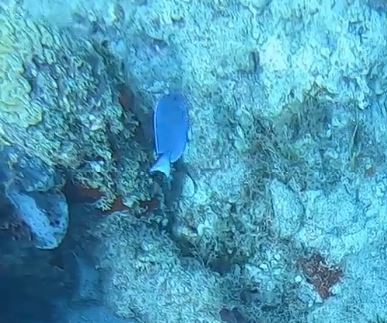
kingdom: Animalia
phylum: Chordata
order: Perciformes
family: Acanthuridae
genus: Acanthurus
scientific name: Acanthurus coeruleus
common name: Blue tang
